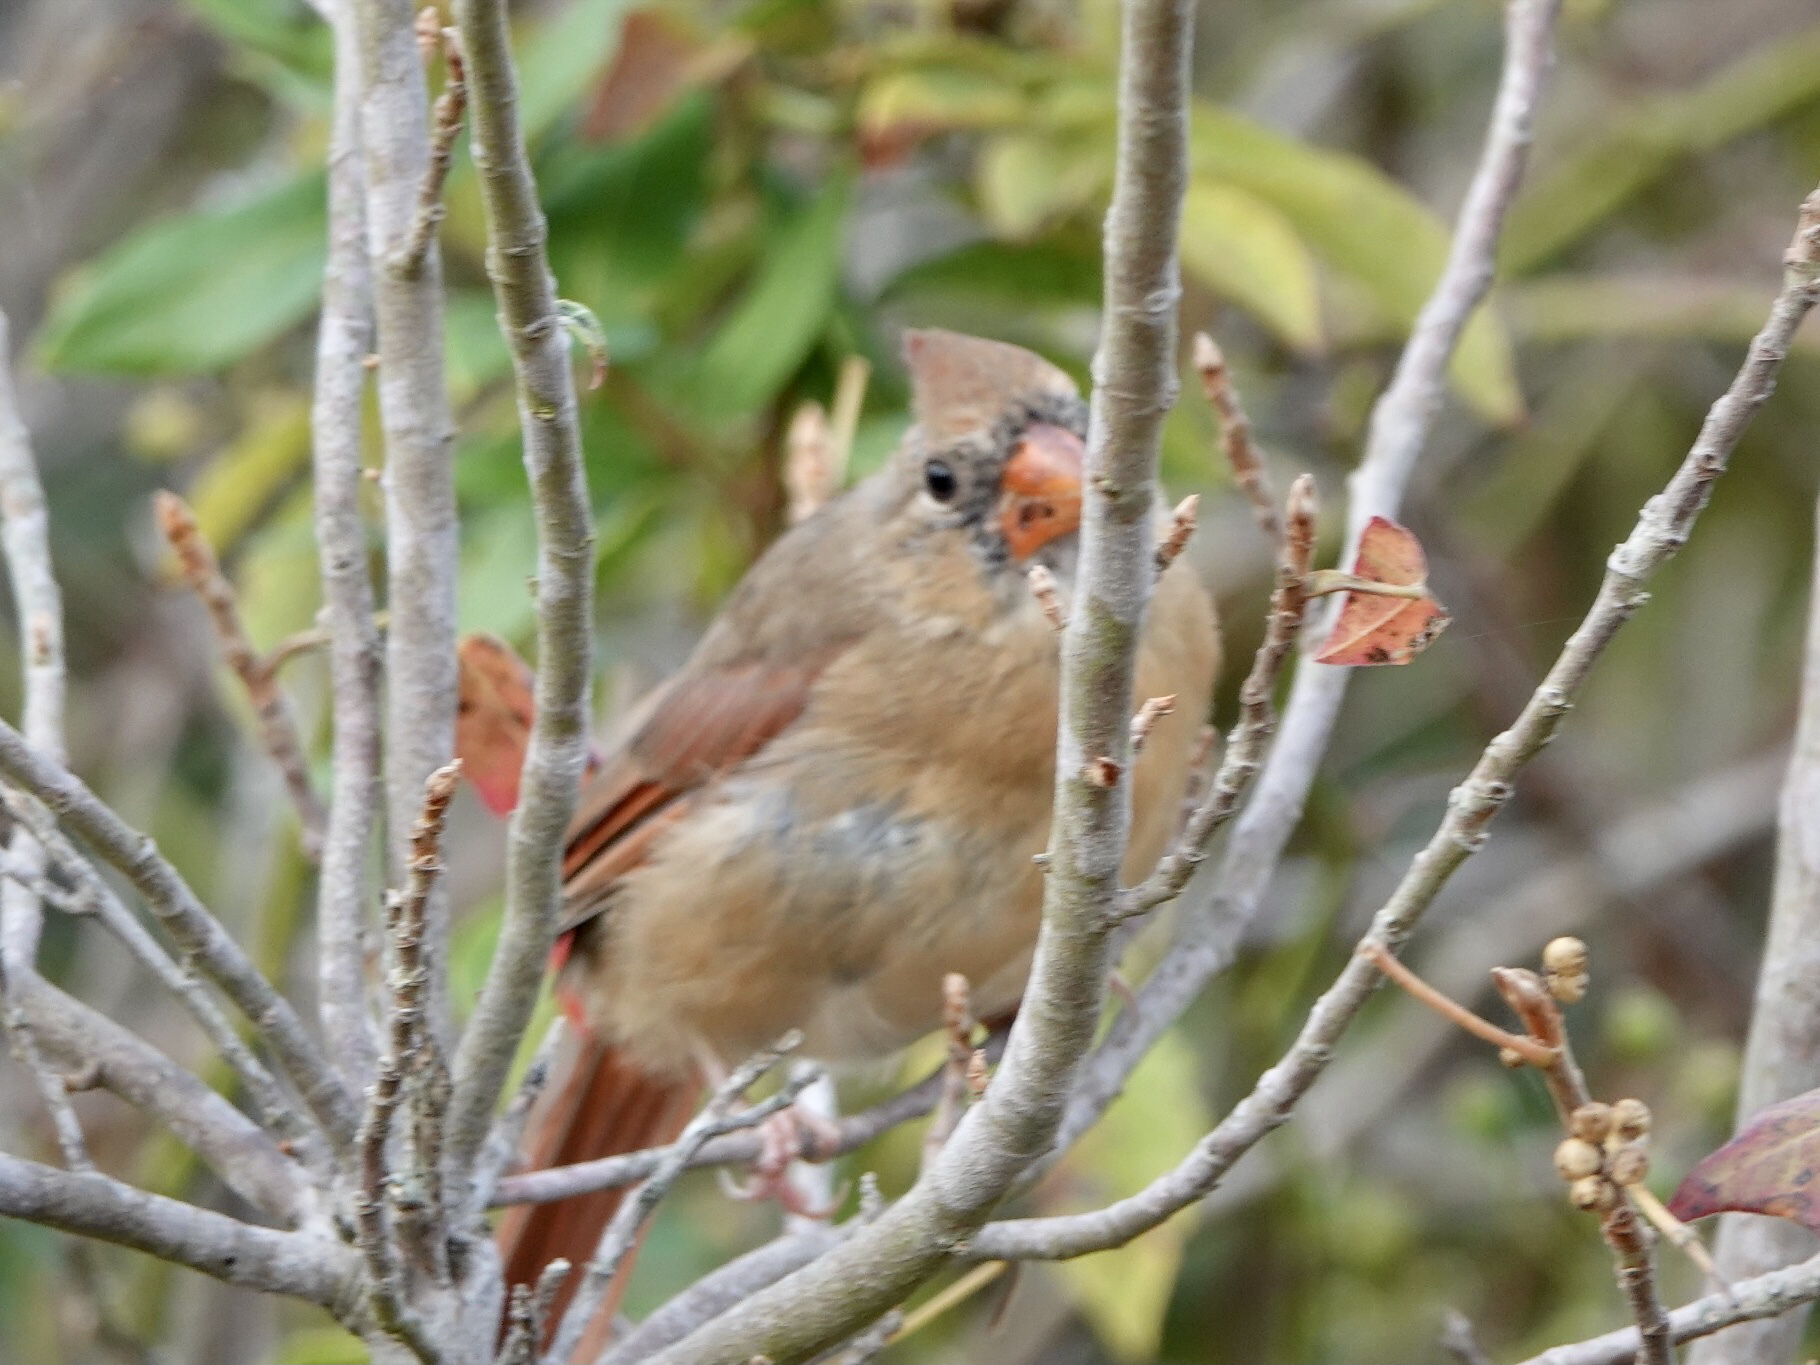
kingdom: Animalia
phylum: Chordata
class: Aves
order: Passeriformes
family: Cardinalidae
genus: Cardinalis
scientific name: Cardinalis cardinalis
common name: Northern cardinal
